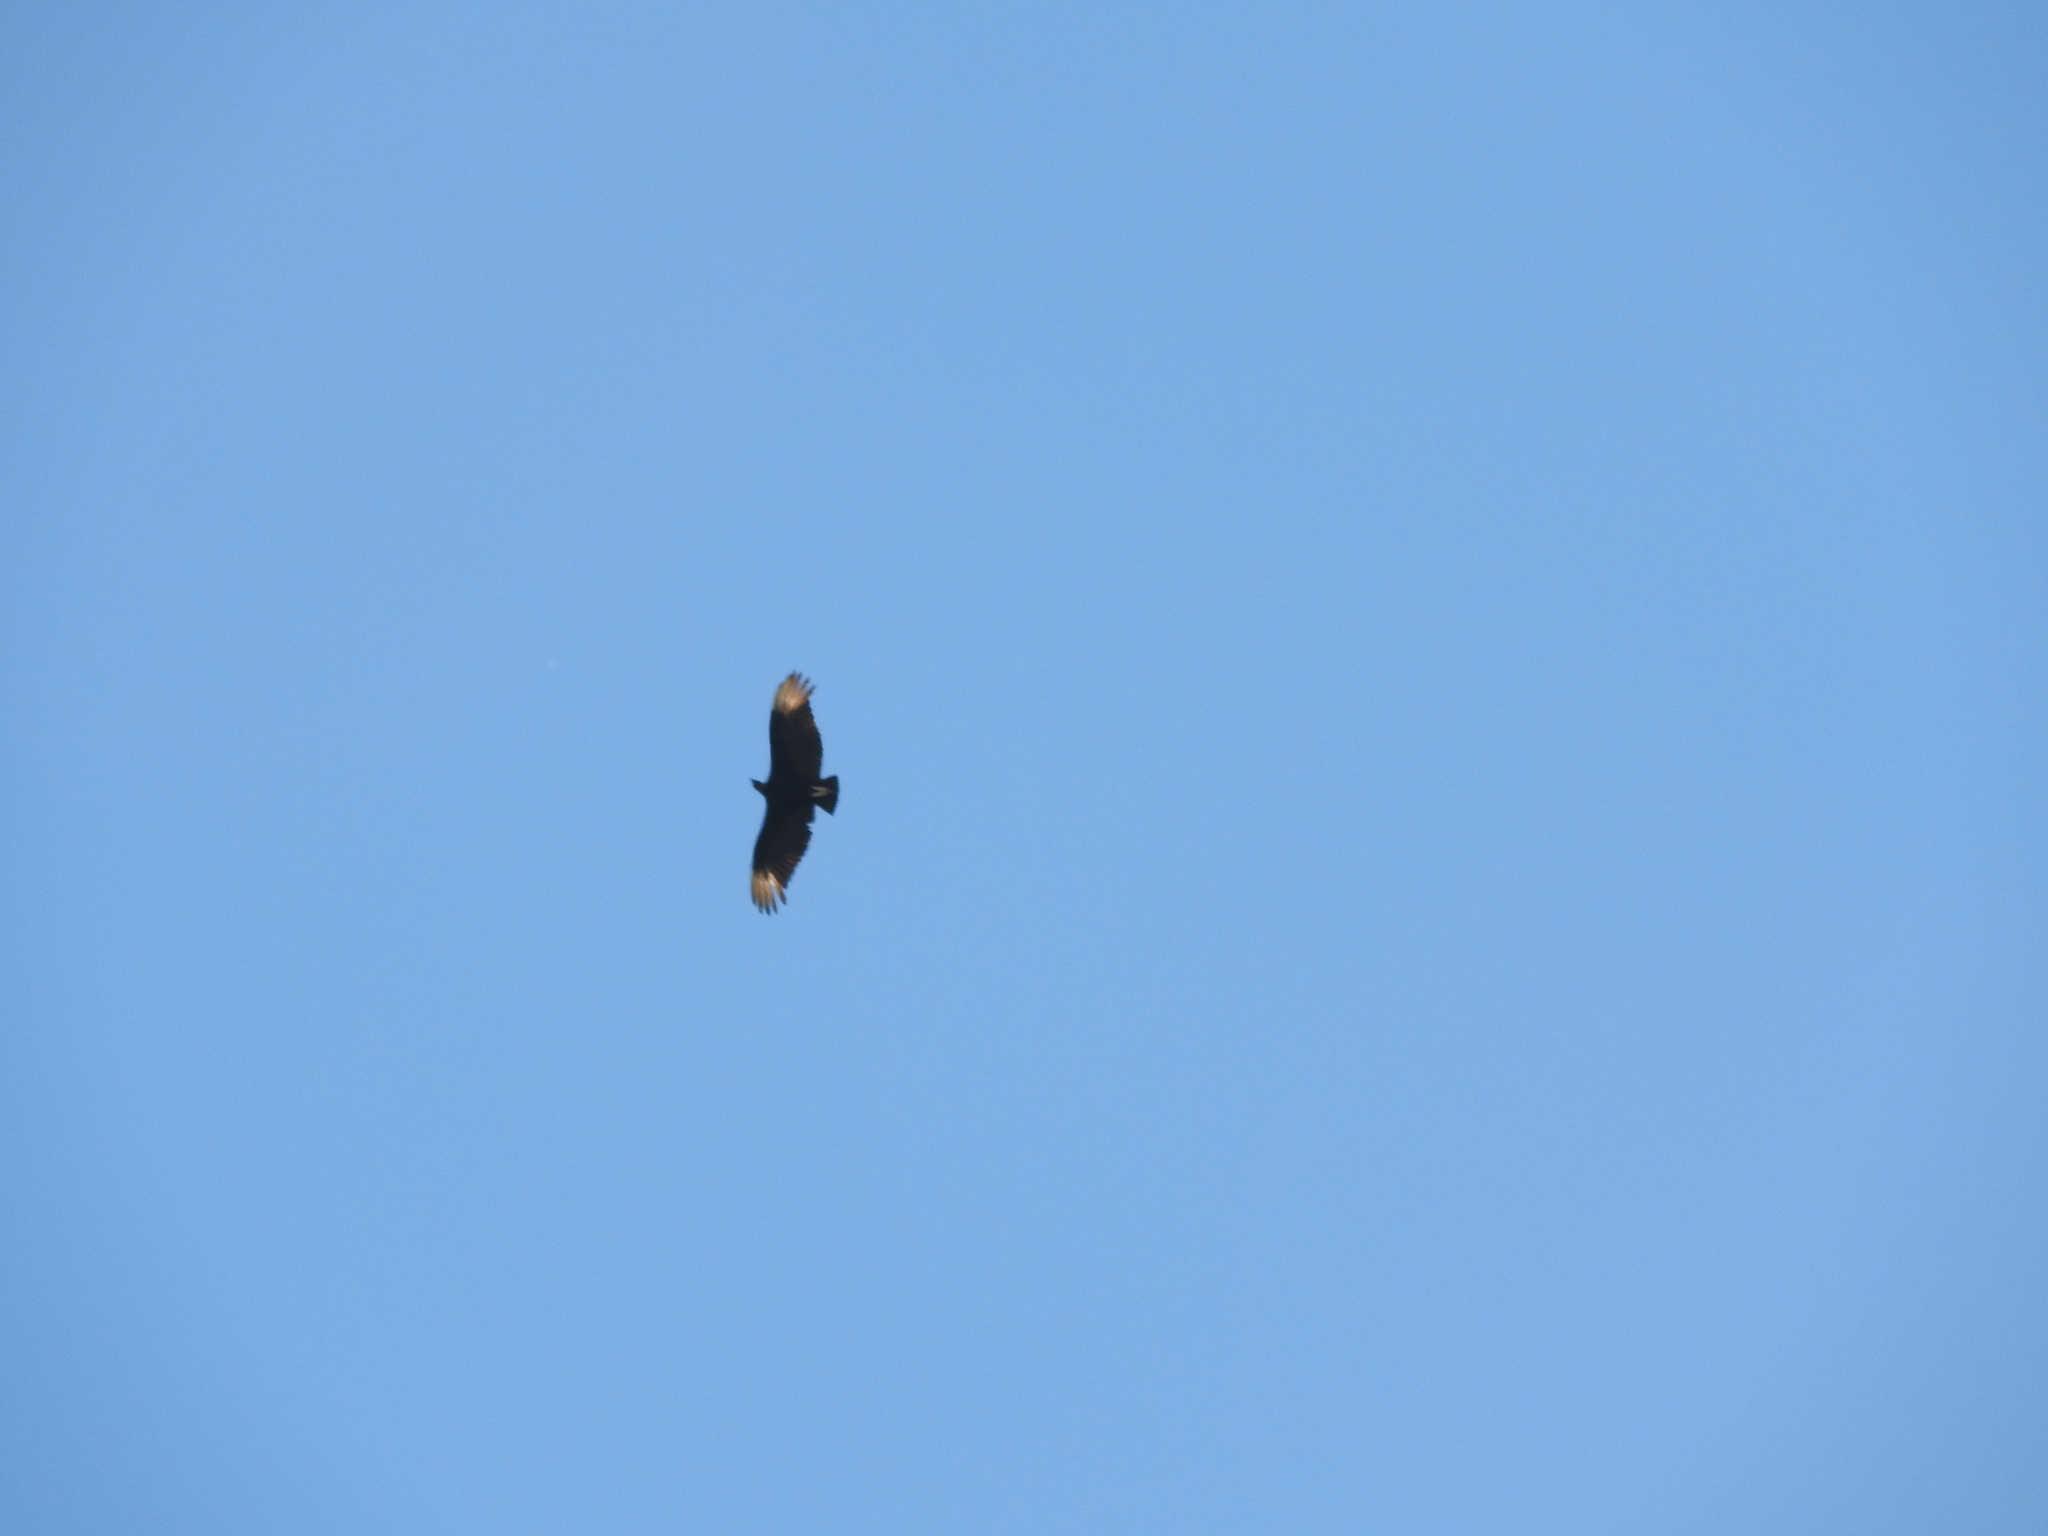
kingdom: Animalia
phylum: Chordata
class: Aves
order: Accipitriformes
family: Cathartidae
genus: Coragyps
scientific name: Coragyps atratus
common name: Black vulture
